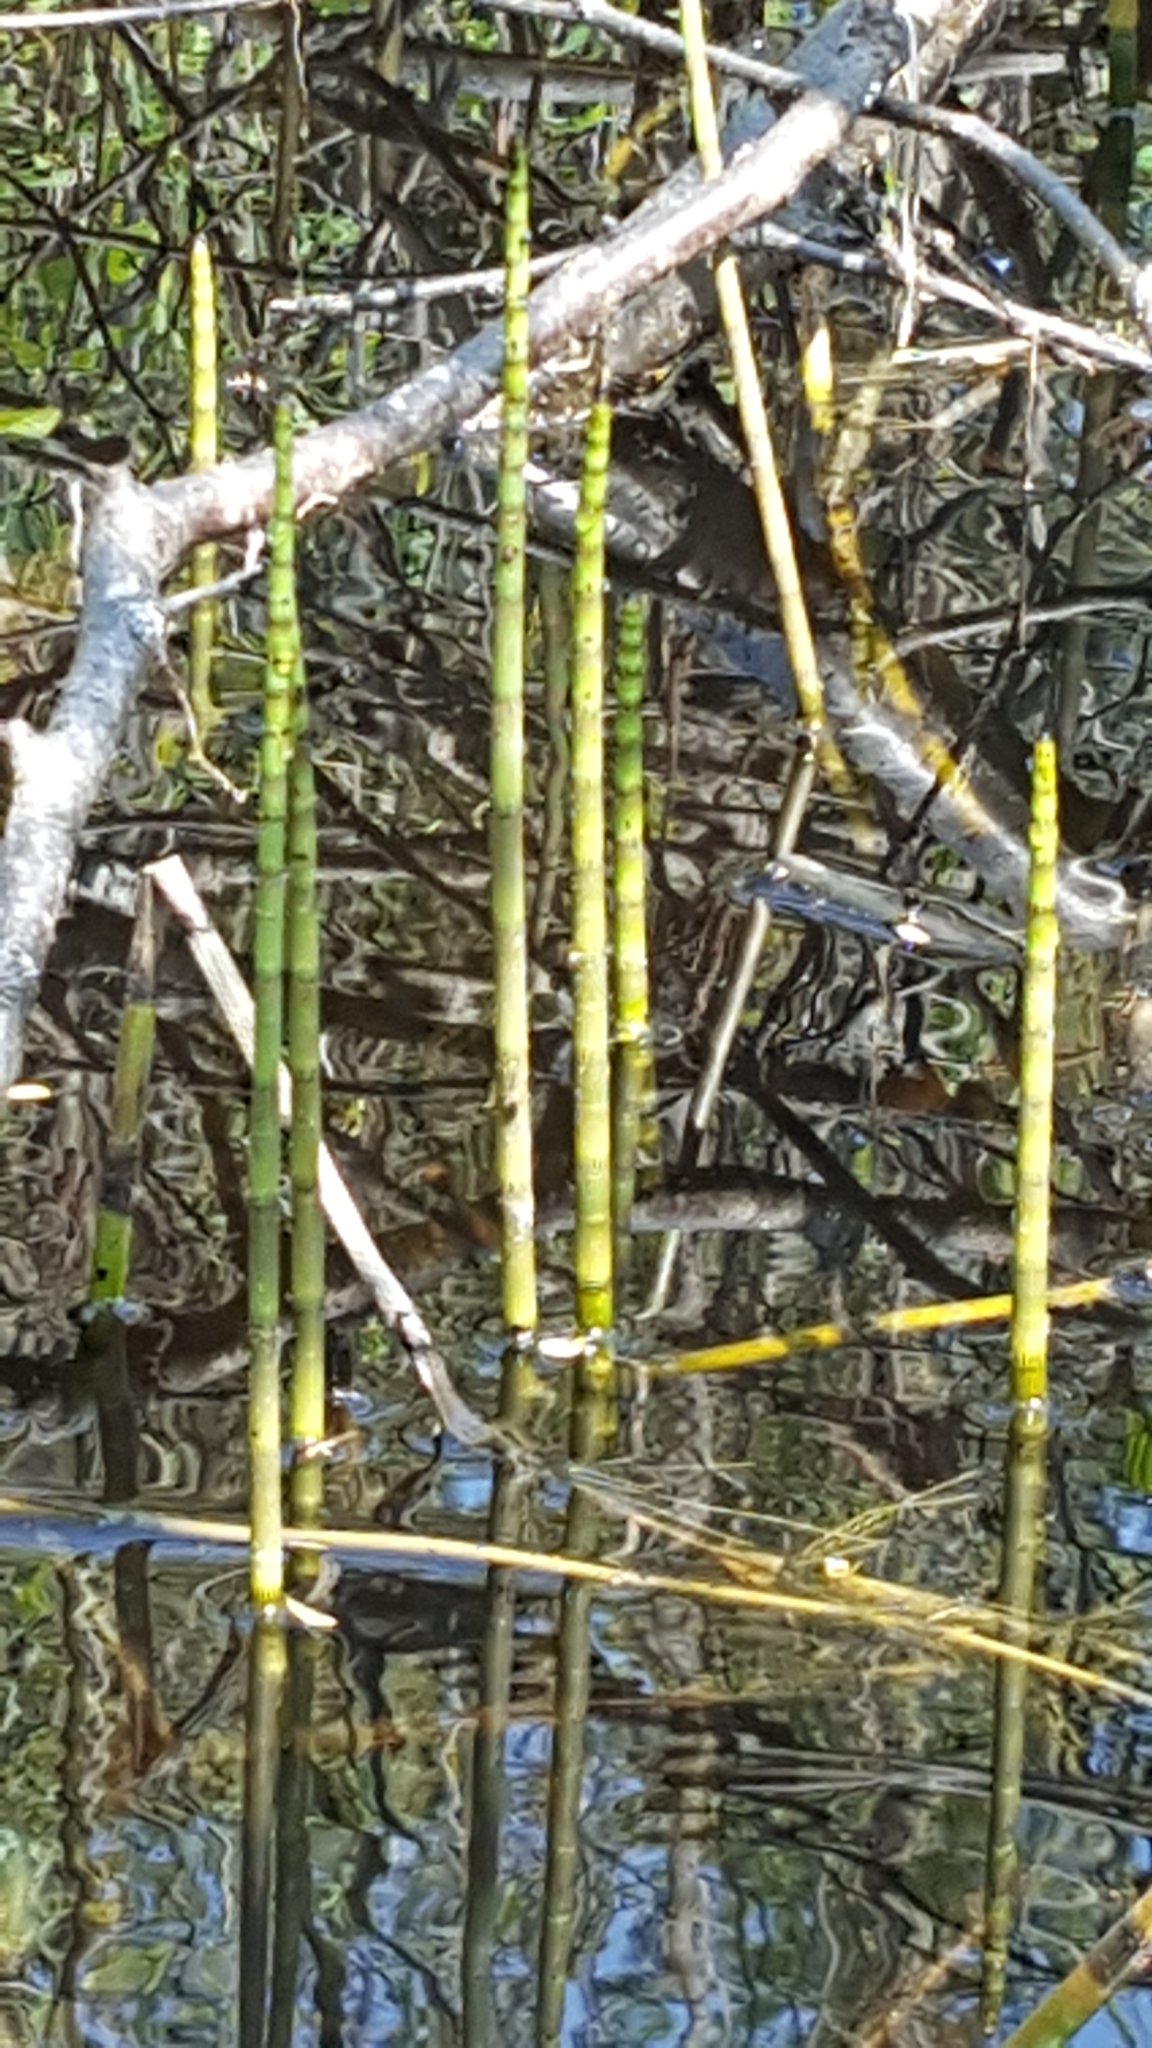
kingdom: Plantae
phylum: Tracheophyta
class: Polypodiopsida
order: Equisetales
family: Equisetaceae
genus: Equisetum
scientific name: Equisetum fluviatile
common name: Water horsetail
